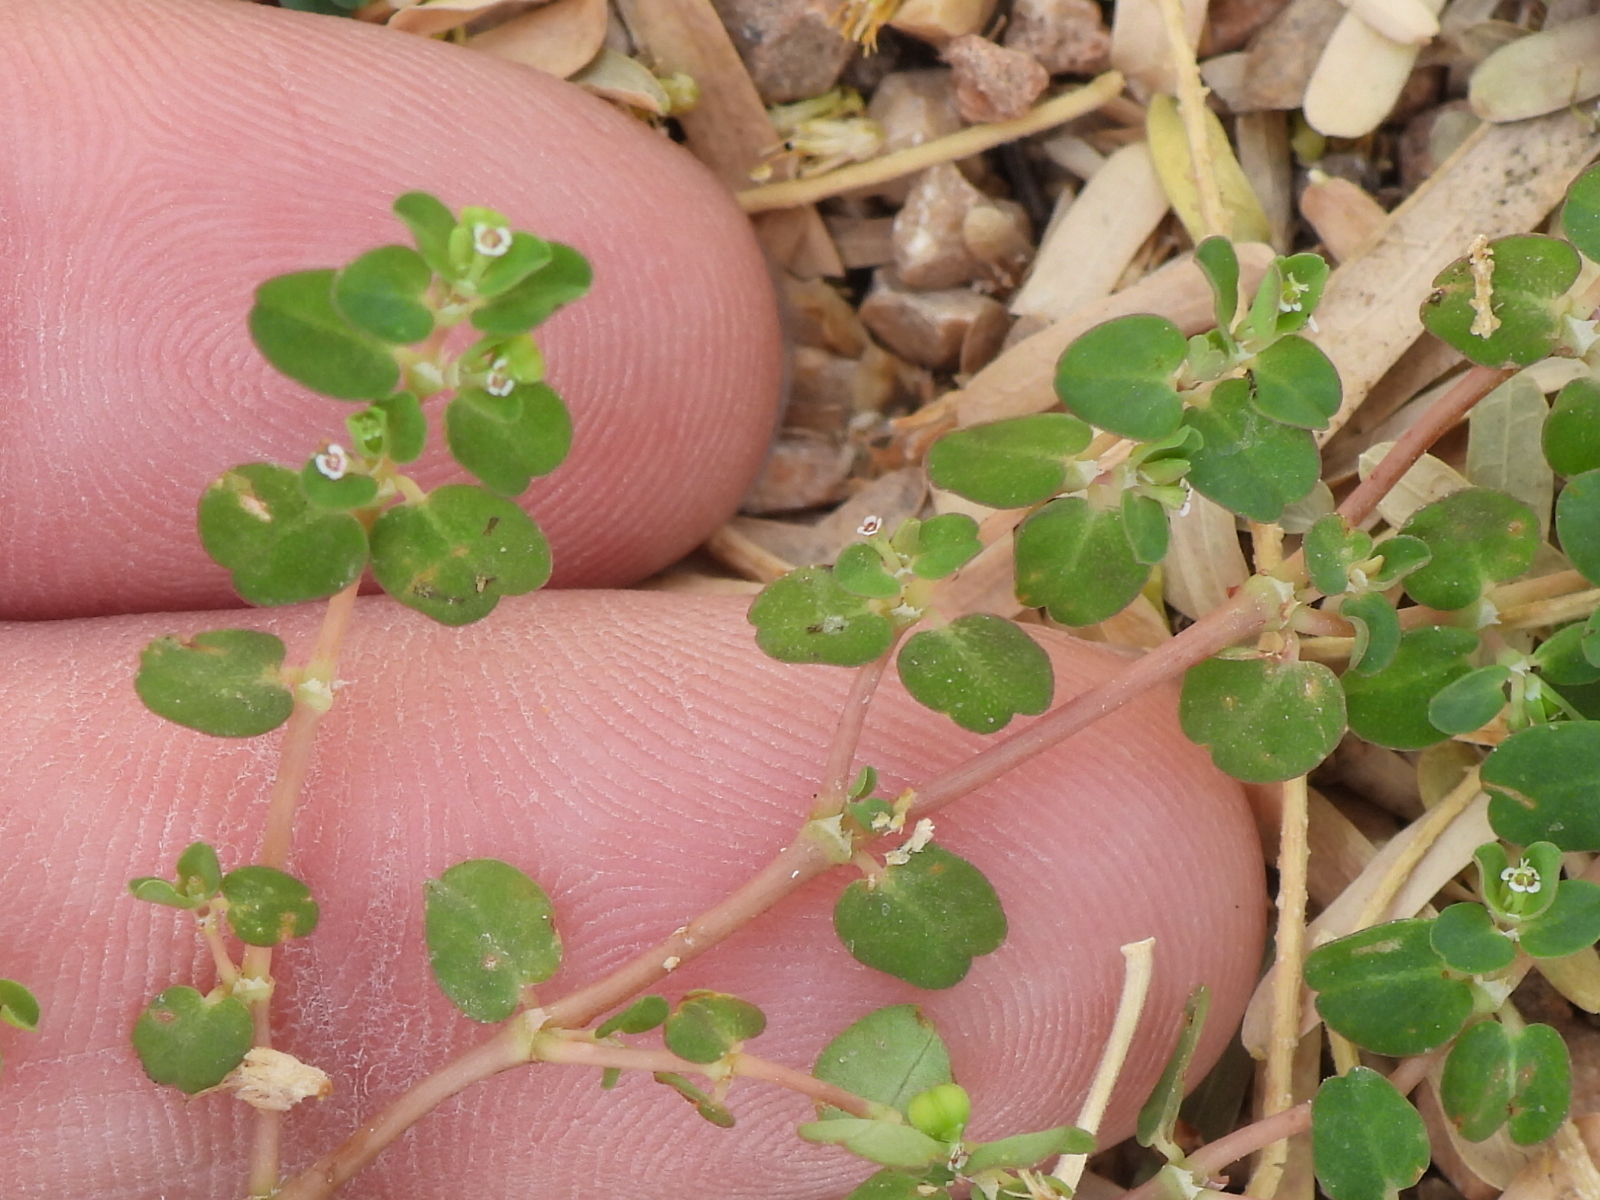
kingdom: Plantae
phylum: Tracheophyta
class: Magnoliopsida
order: Malpighiales
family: Euphorbiaceae
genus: Euphorbia
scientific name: Euphorbia serpens
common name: Matted sandmat
